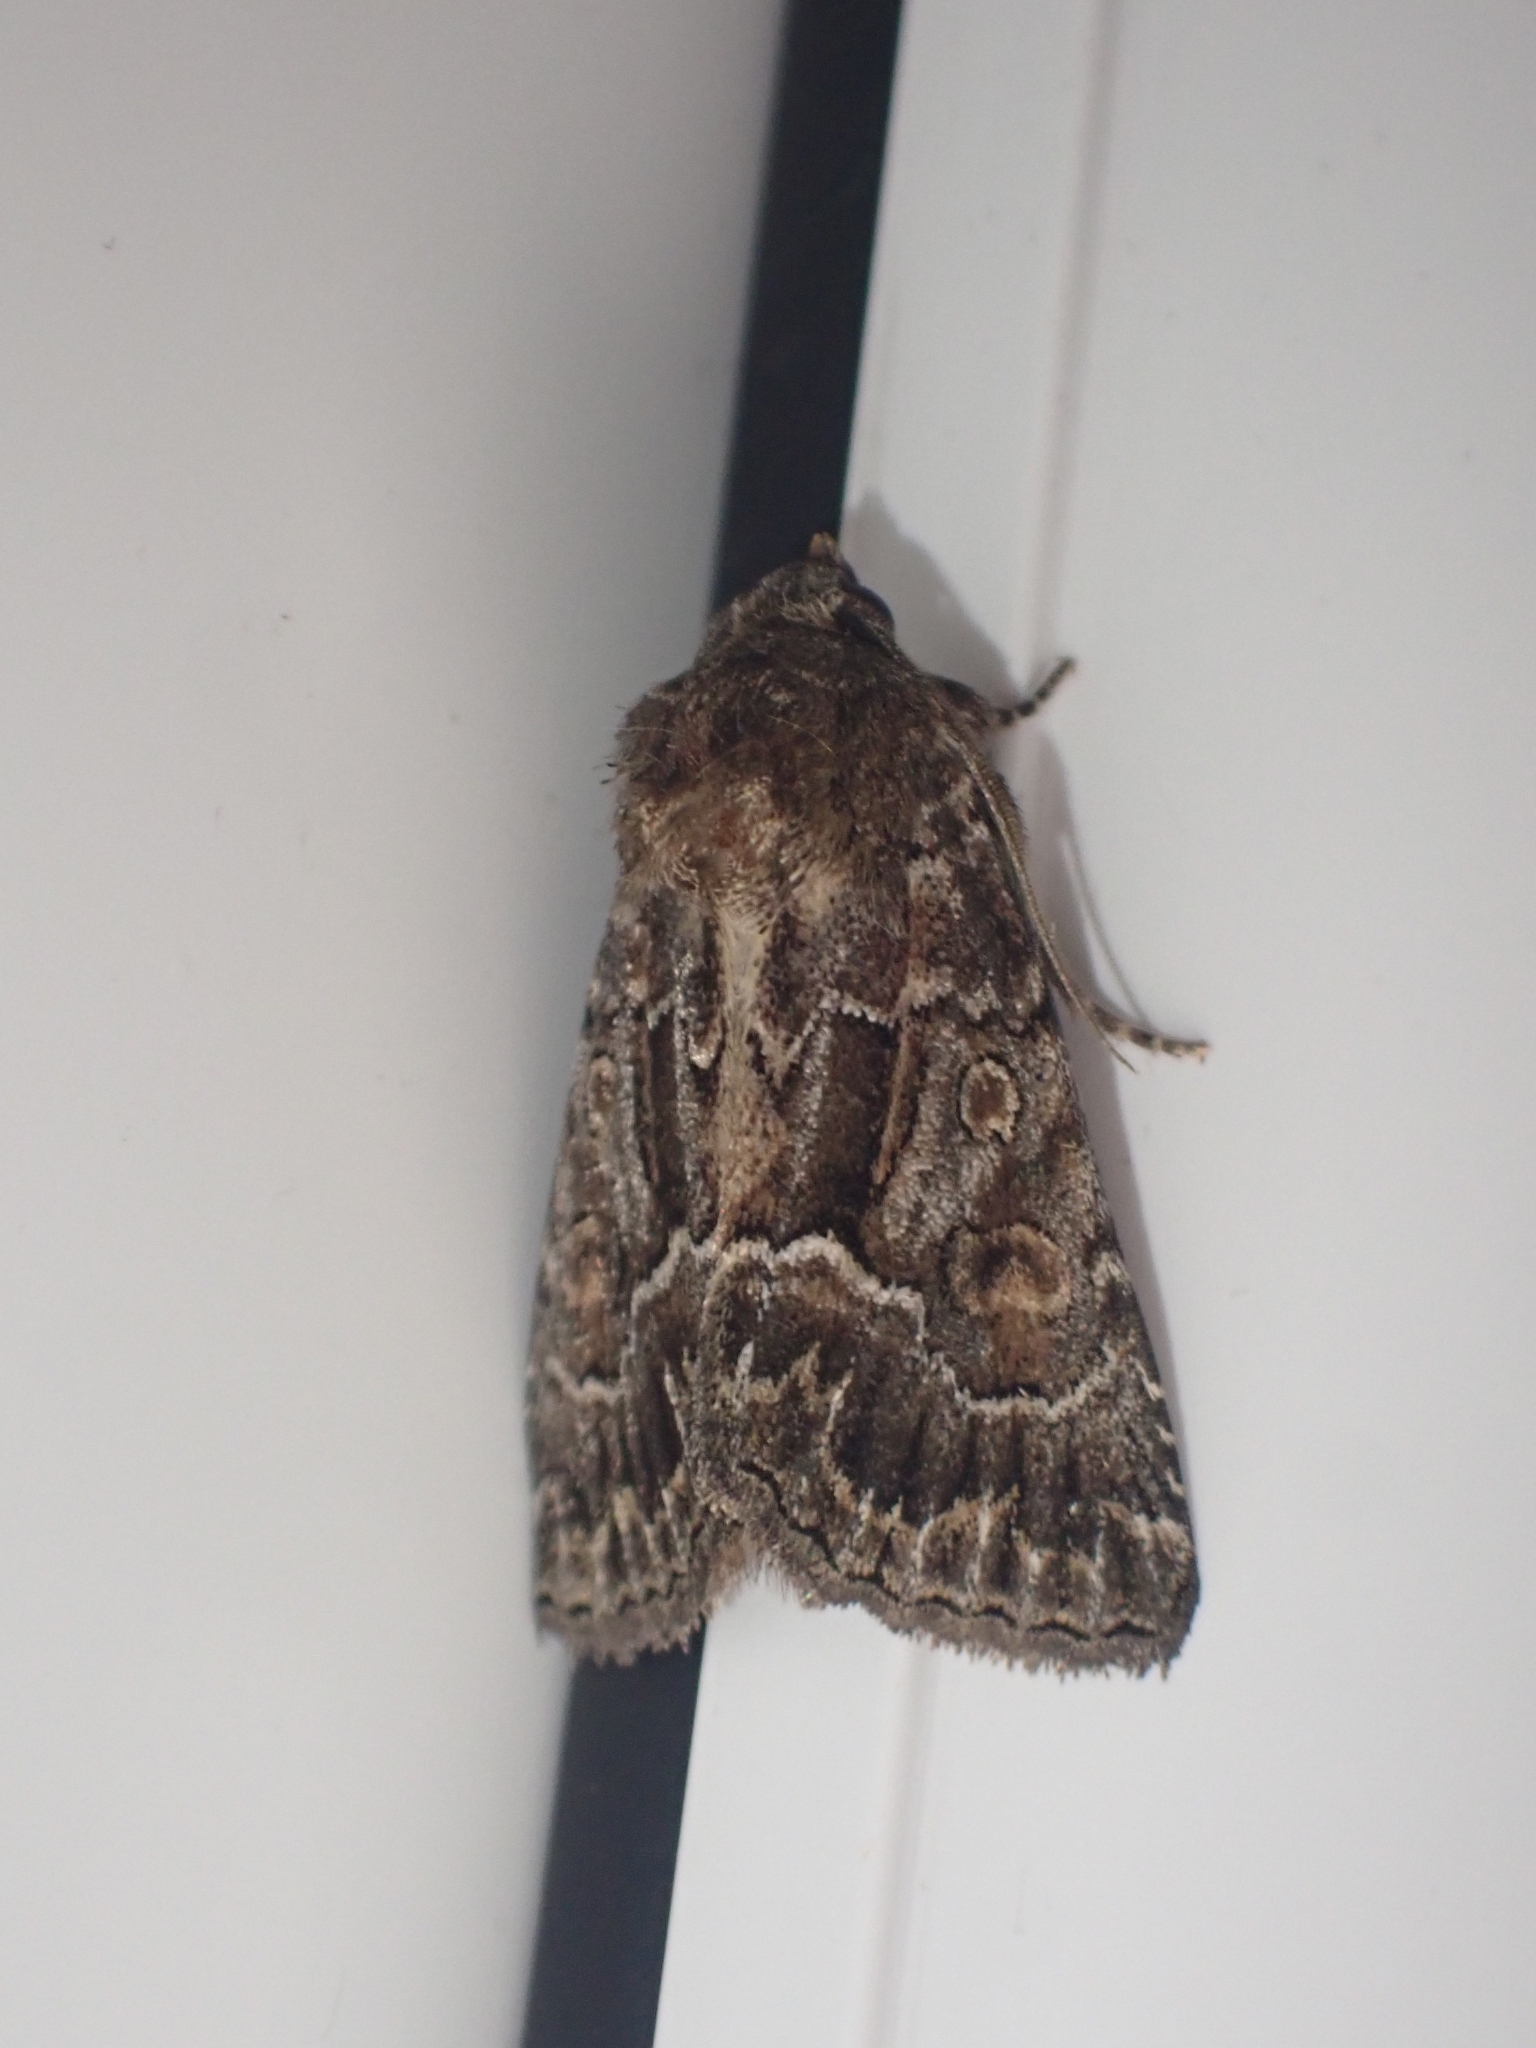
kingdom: Animalia
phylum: Arthropoda
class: Insecta
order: Lepidoptera
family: Noctuidae
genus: Thalpophila
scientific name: Thalpophila matura
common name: Straw underwing
